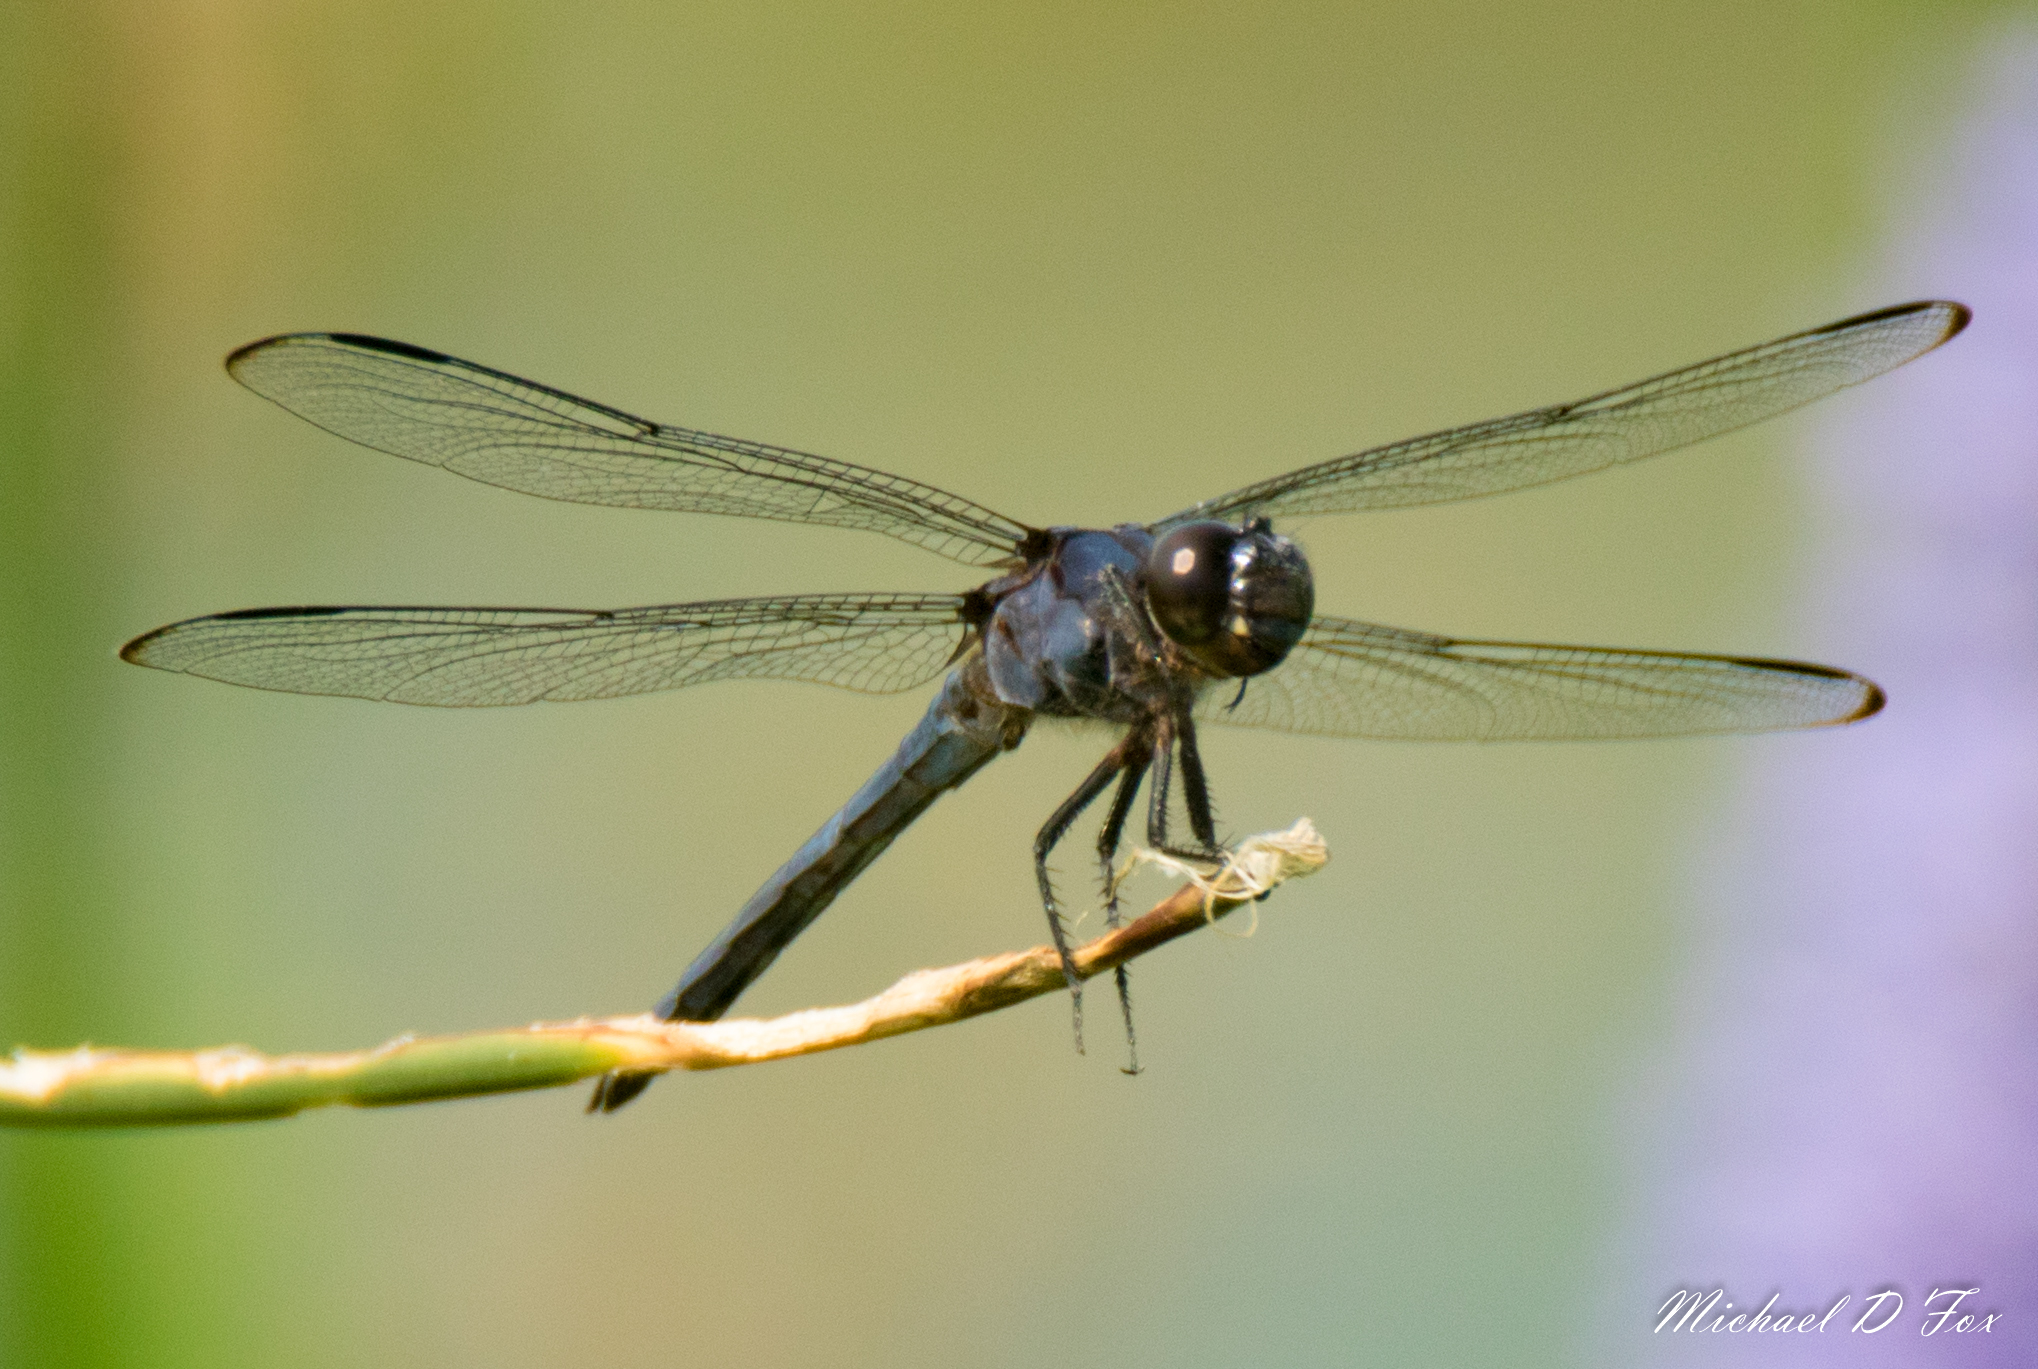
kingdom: Animalia
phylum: Arthropoda
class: Insecta
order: Odonata
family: Libellulidae
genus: Libellula
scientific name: Libellula incesta
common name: Slaty skimmer
